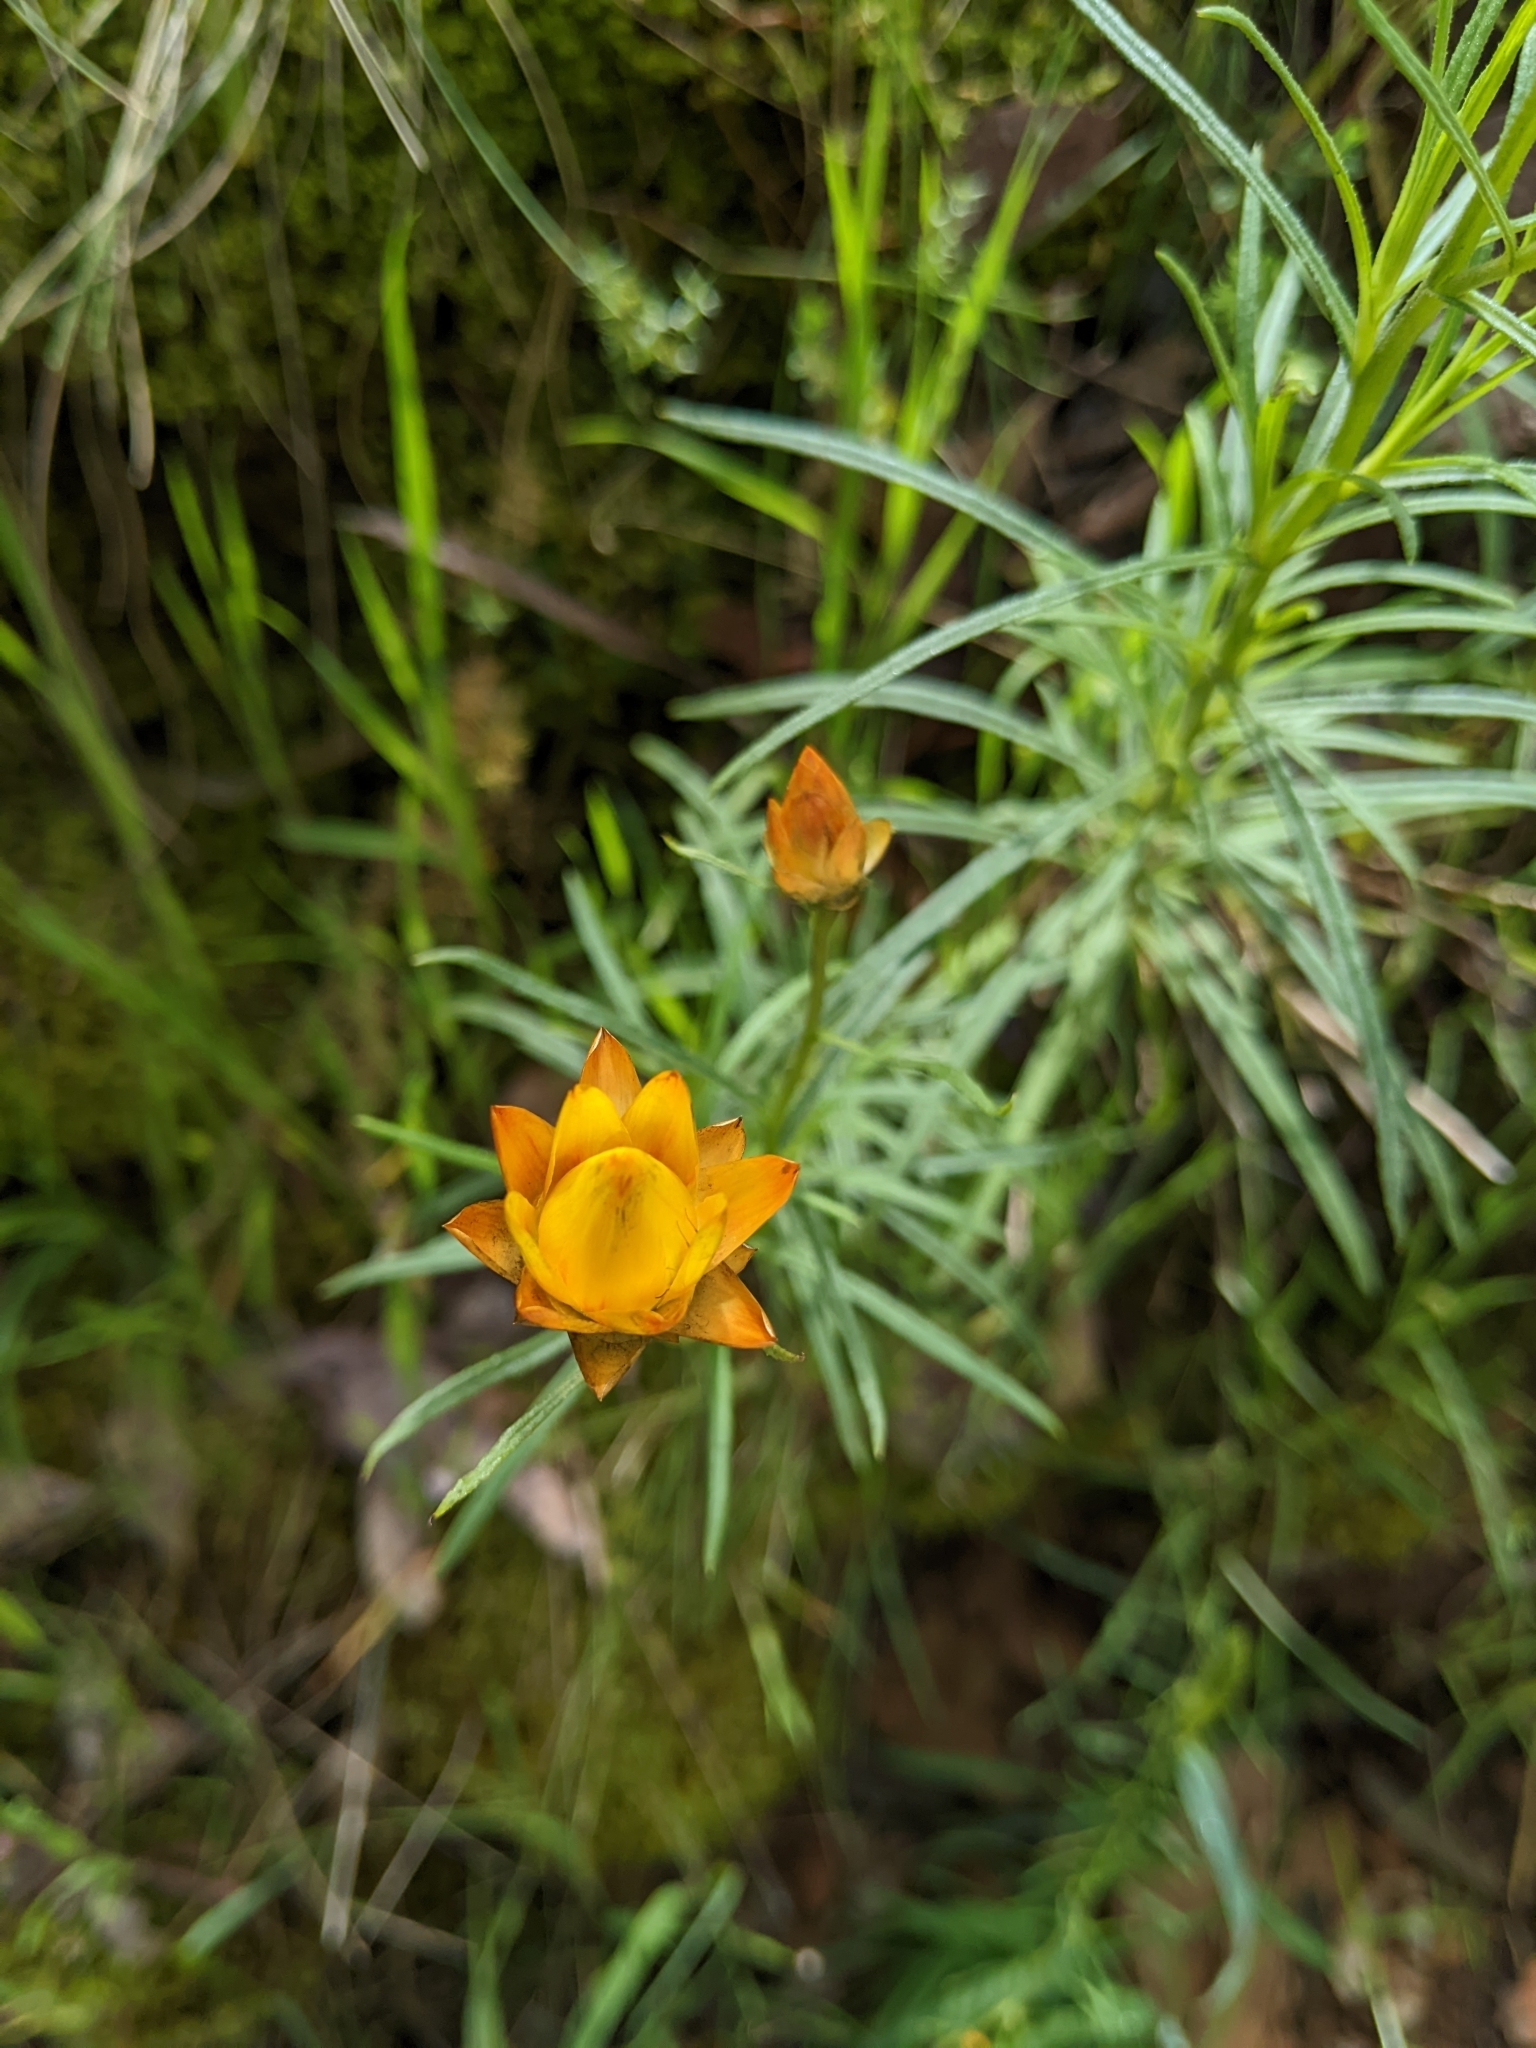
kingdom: Plantae
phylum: Tracheophyta
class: Magnoliopsida
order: Asterales
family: Asteraceae
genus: Xerochrysum
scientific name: Xerochrysum viscosum
